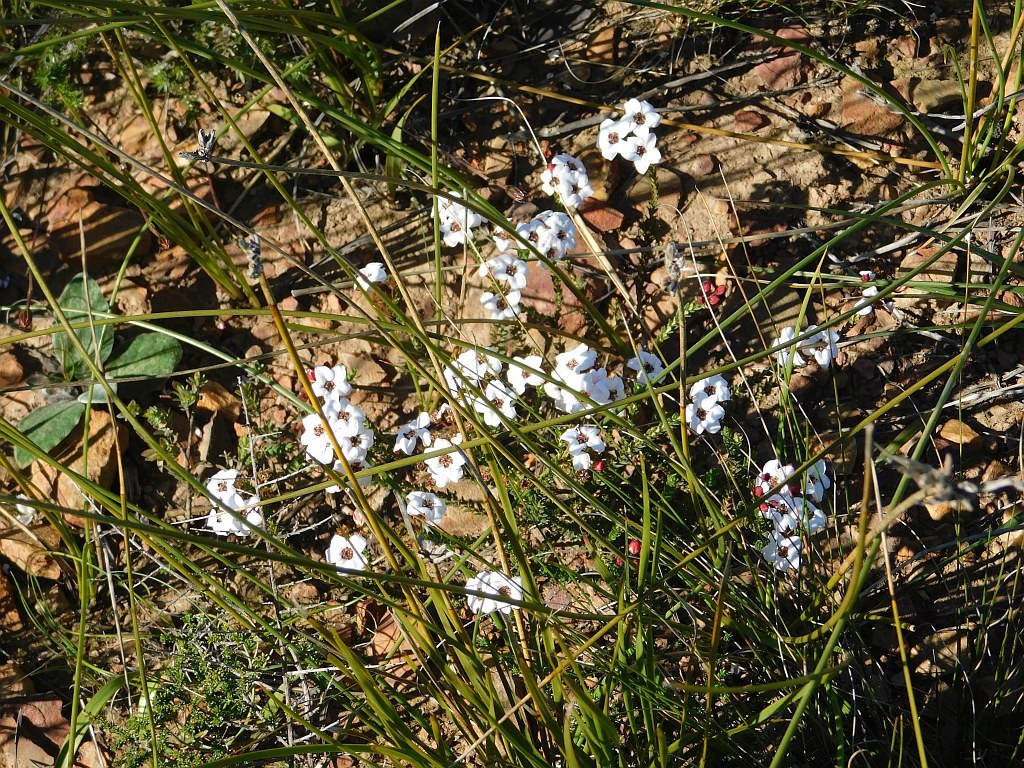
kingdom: Plantae
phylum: Tracheophyta
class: Magnoliopsida
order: Sapindales
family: Rutaceae
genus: Adenandra
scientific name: Adenandra marginata
